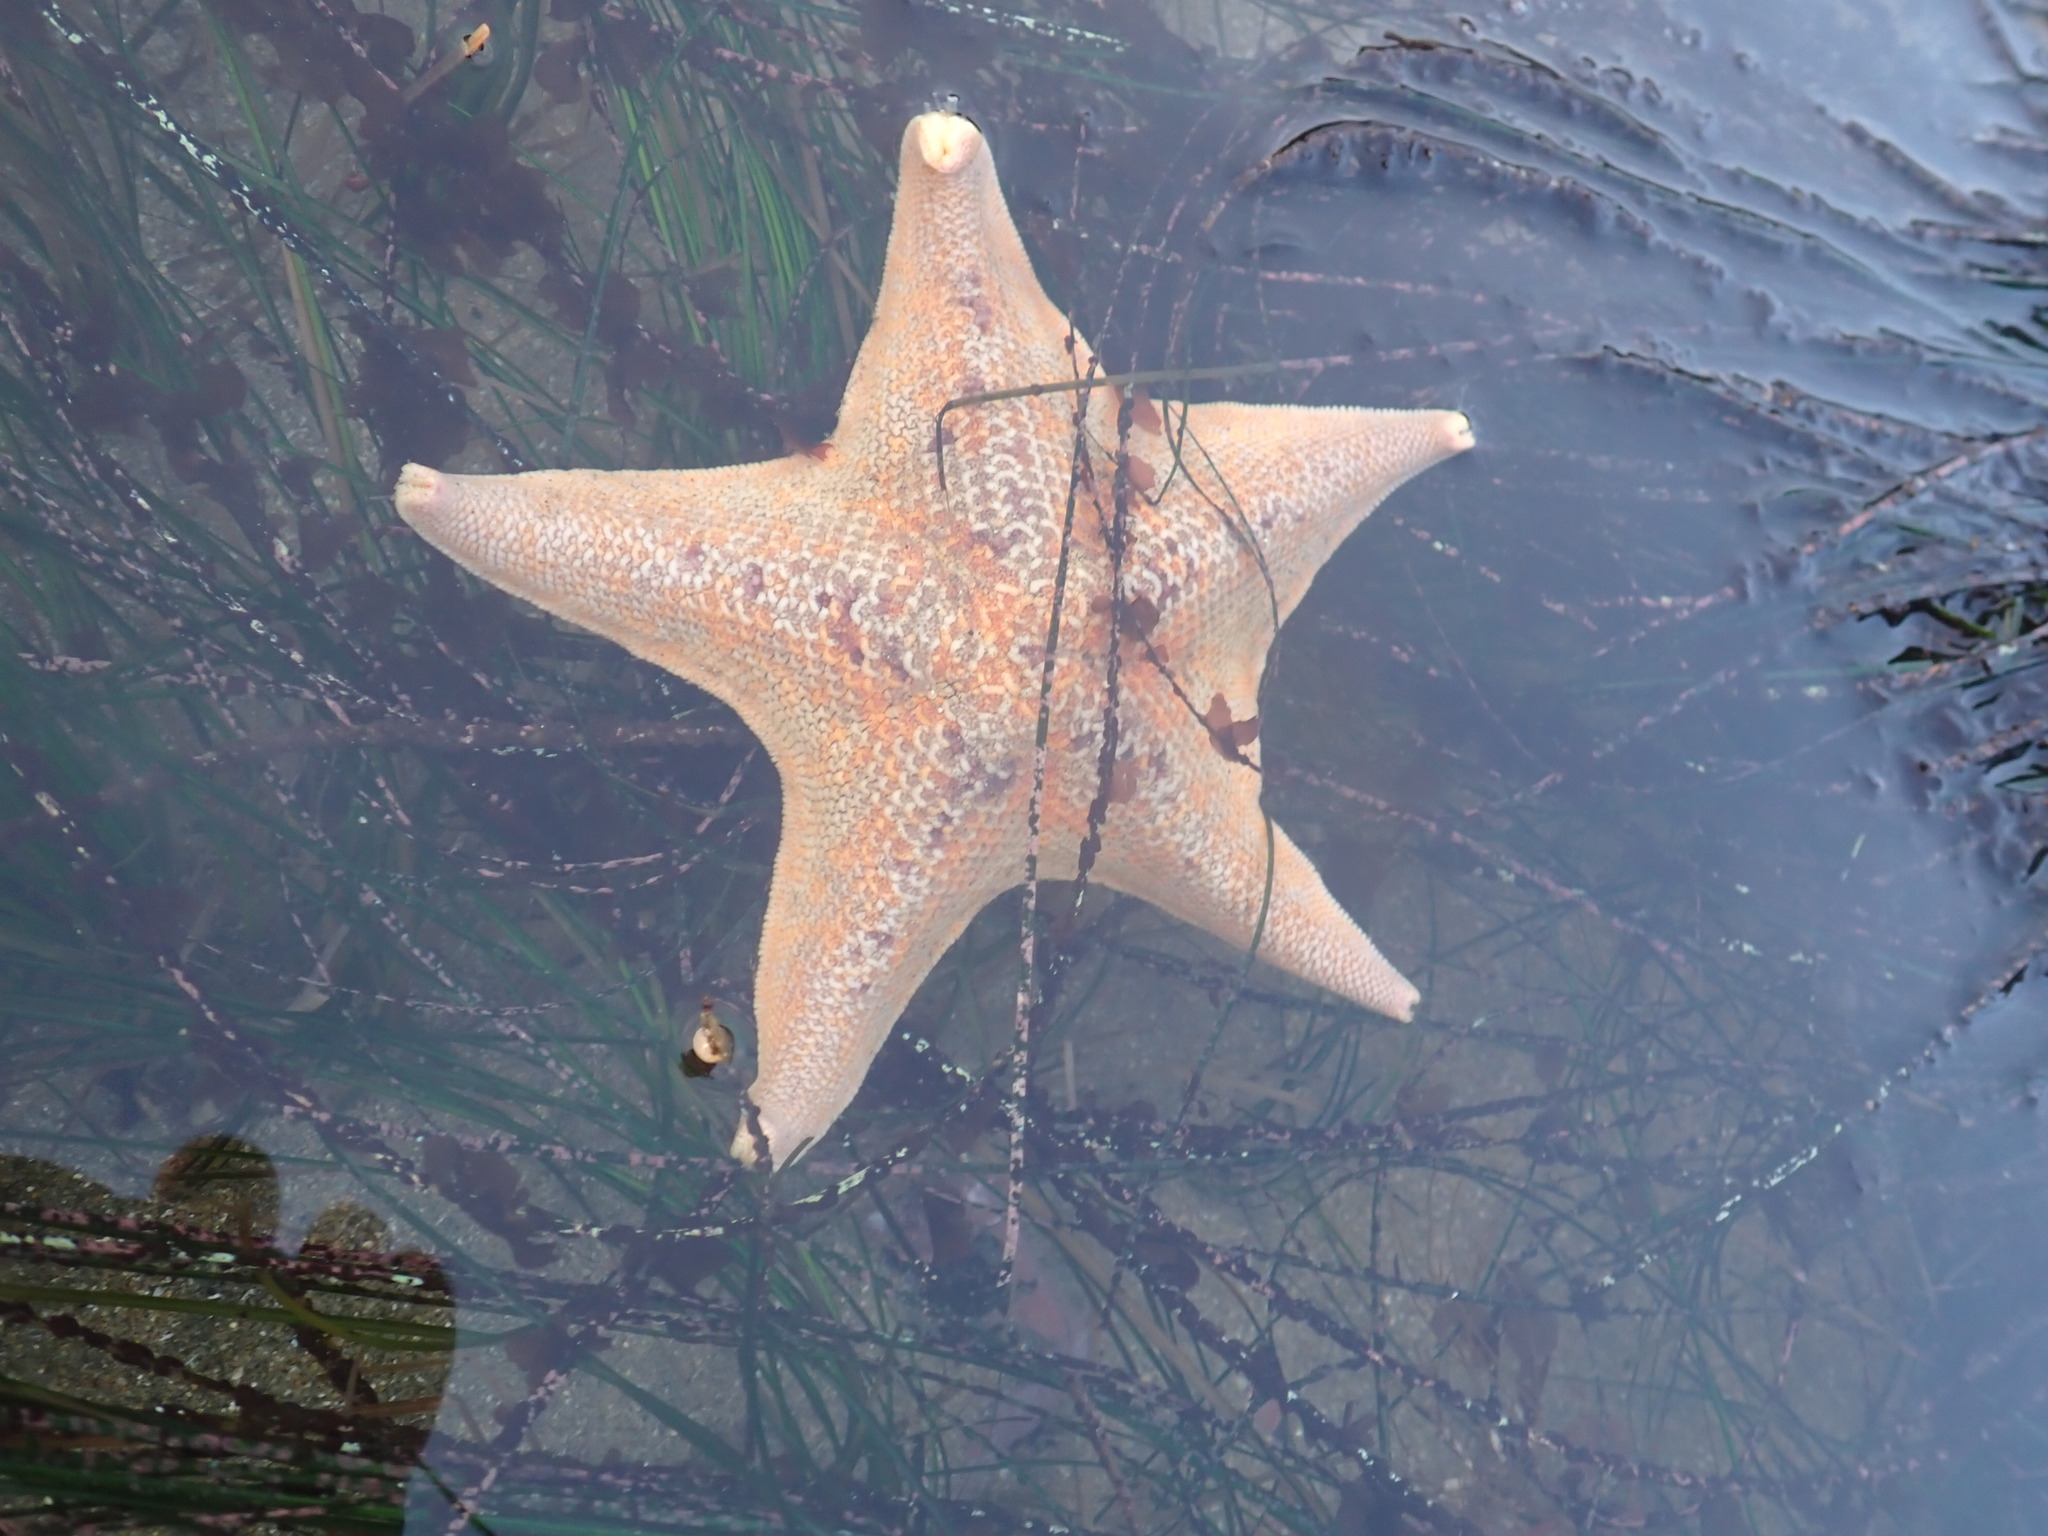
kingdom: Animalia
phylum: Echinodermata
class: Asteroidea
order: Valvatida
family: Asterinidae
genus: Patiria
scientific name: Patiria miniata
